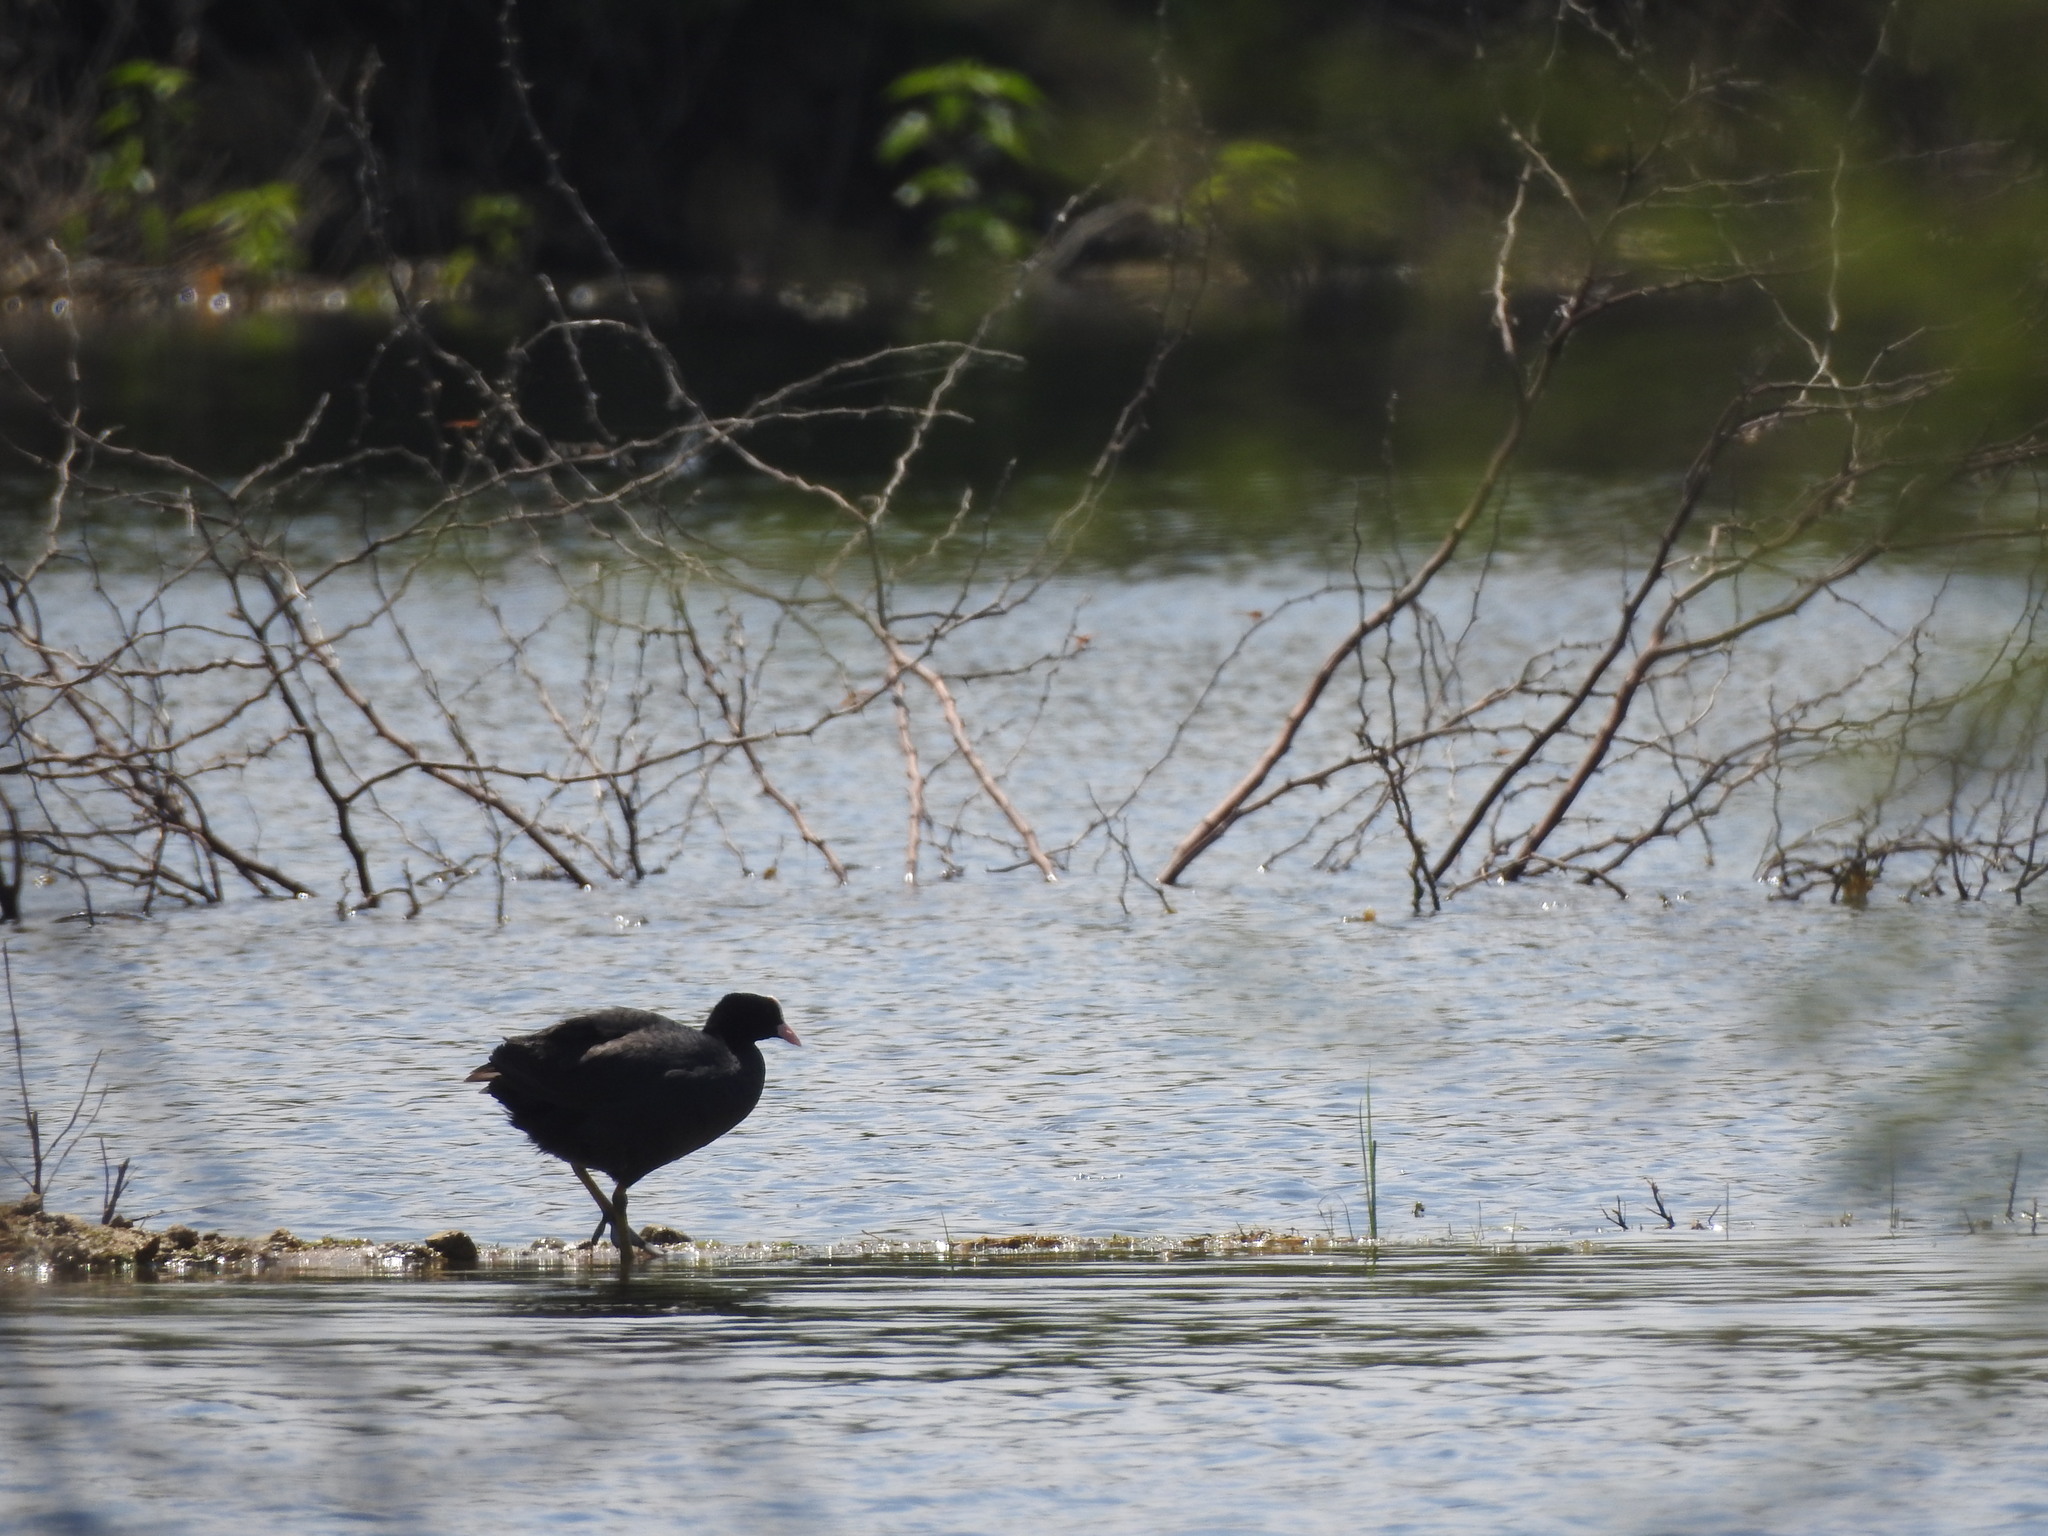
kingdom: Animalia
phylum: Chordata
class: Aves
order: Gruiformes
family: Rallidae
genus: Fulica
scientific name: Fulica atra
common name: Eurasian coot
